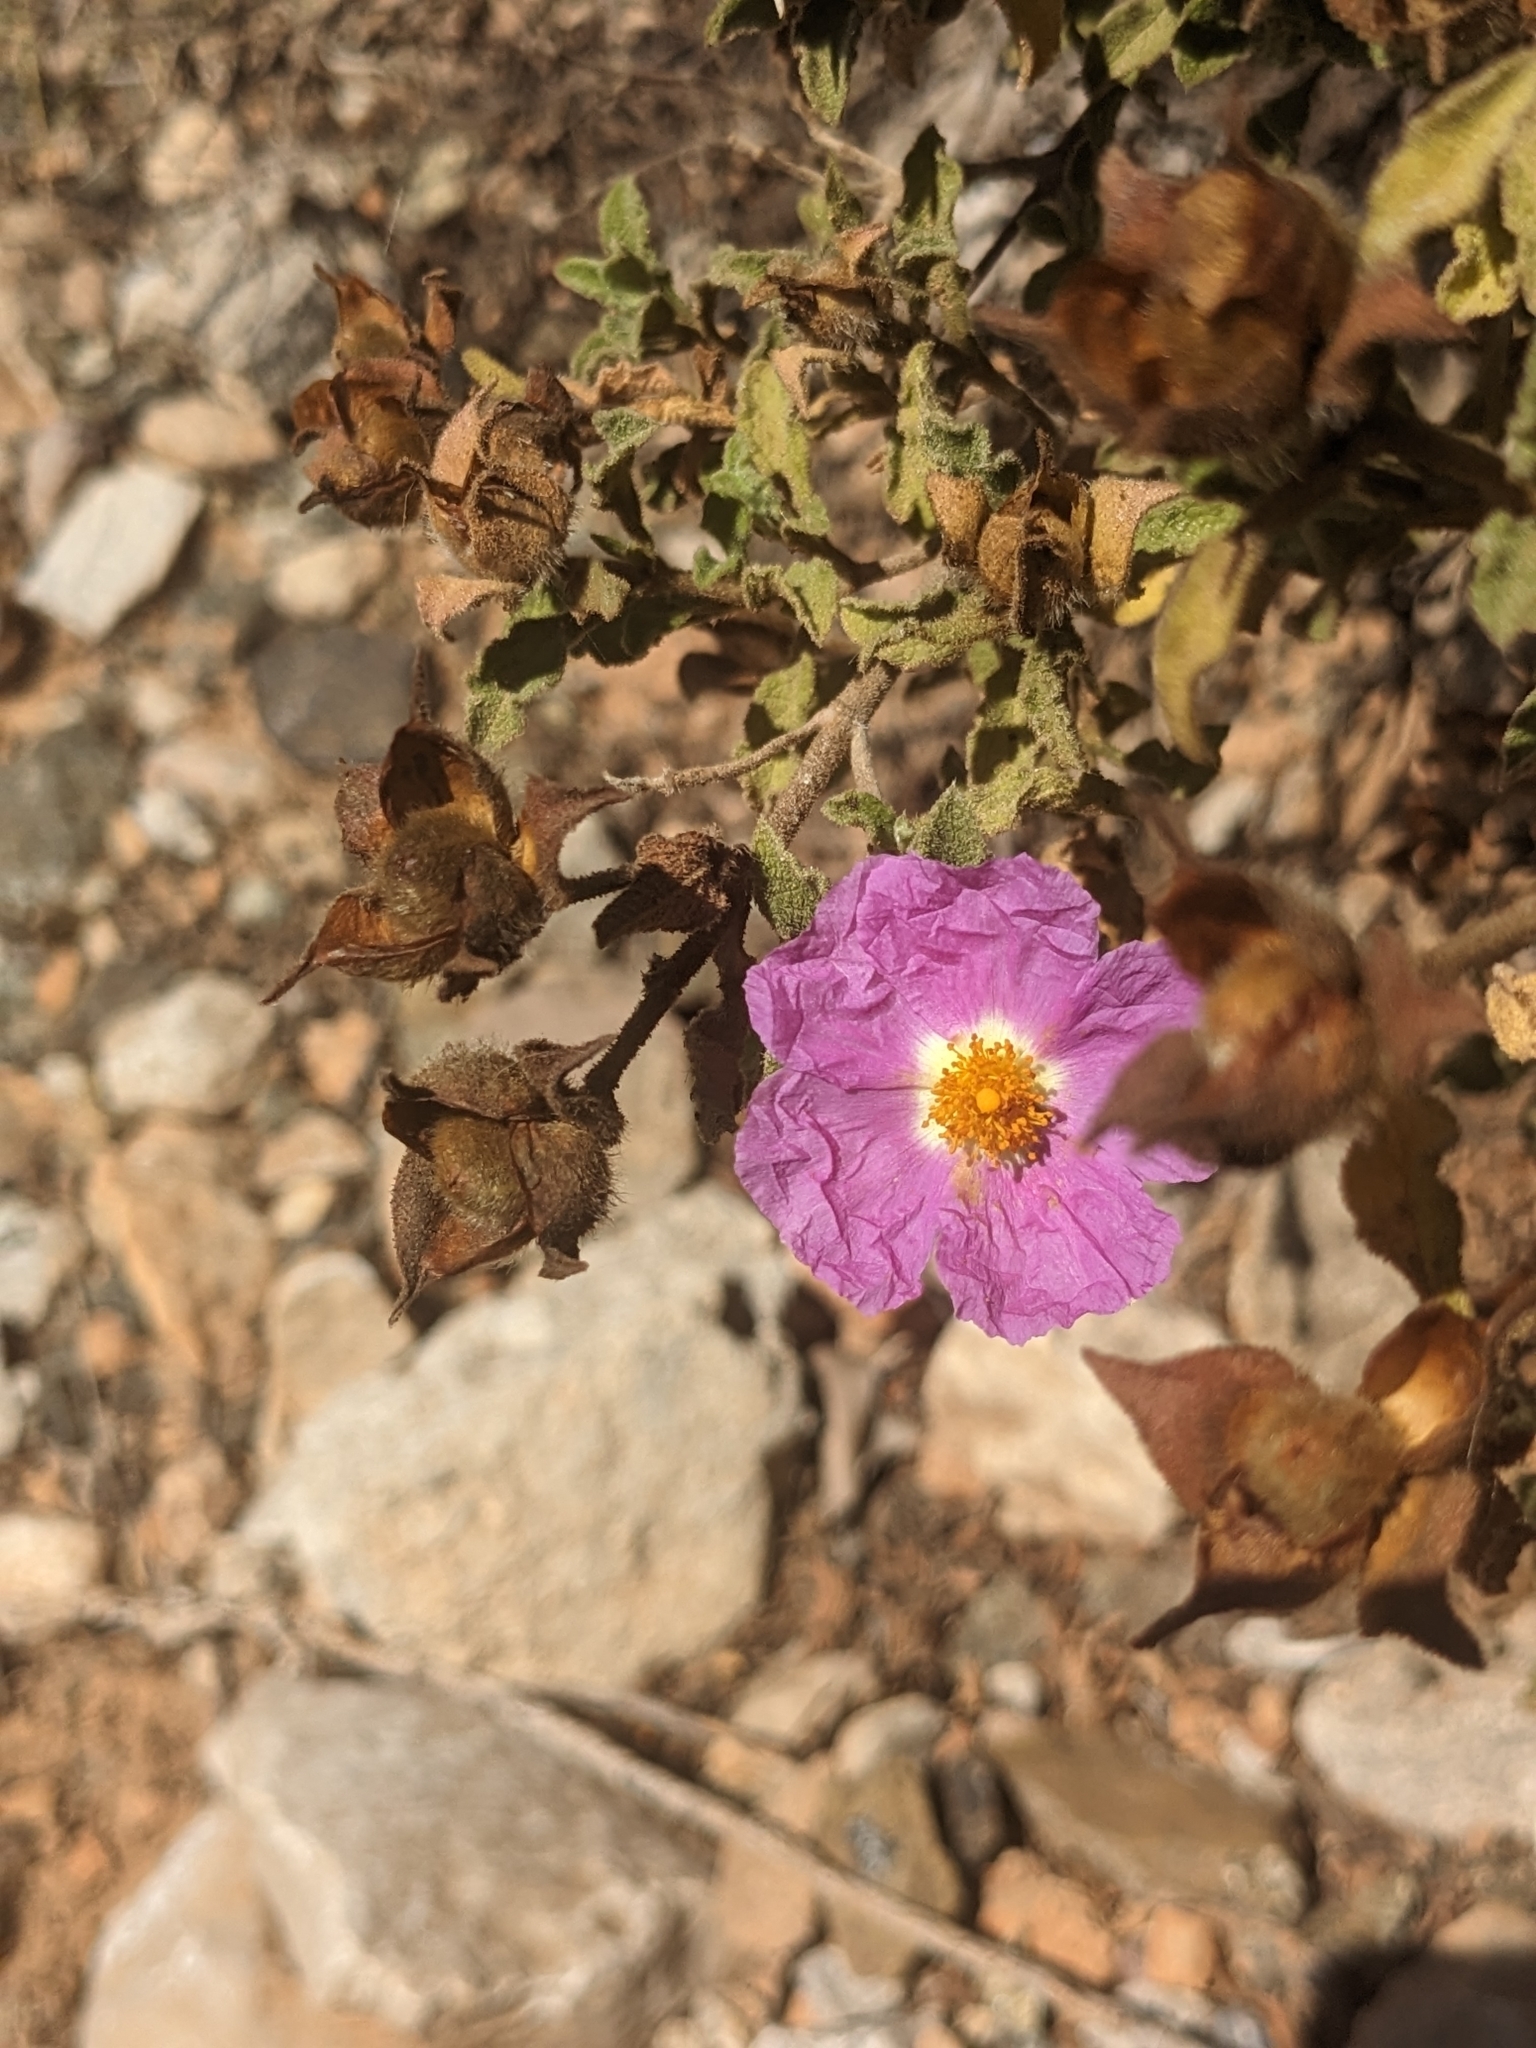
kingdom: Plantae
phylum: Tracheophyta
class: Magnoliopsida
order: Malvales
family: Cistaceae
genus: Cistus
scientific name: Cistus creticus
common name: Cretan rockrose
